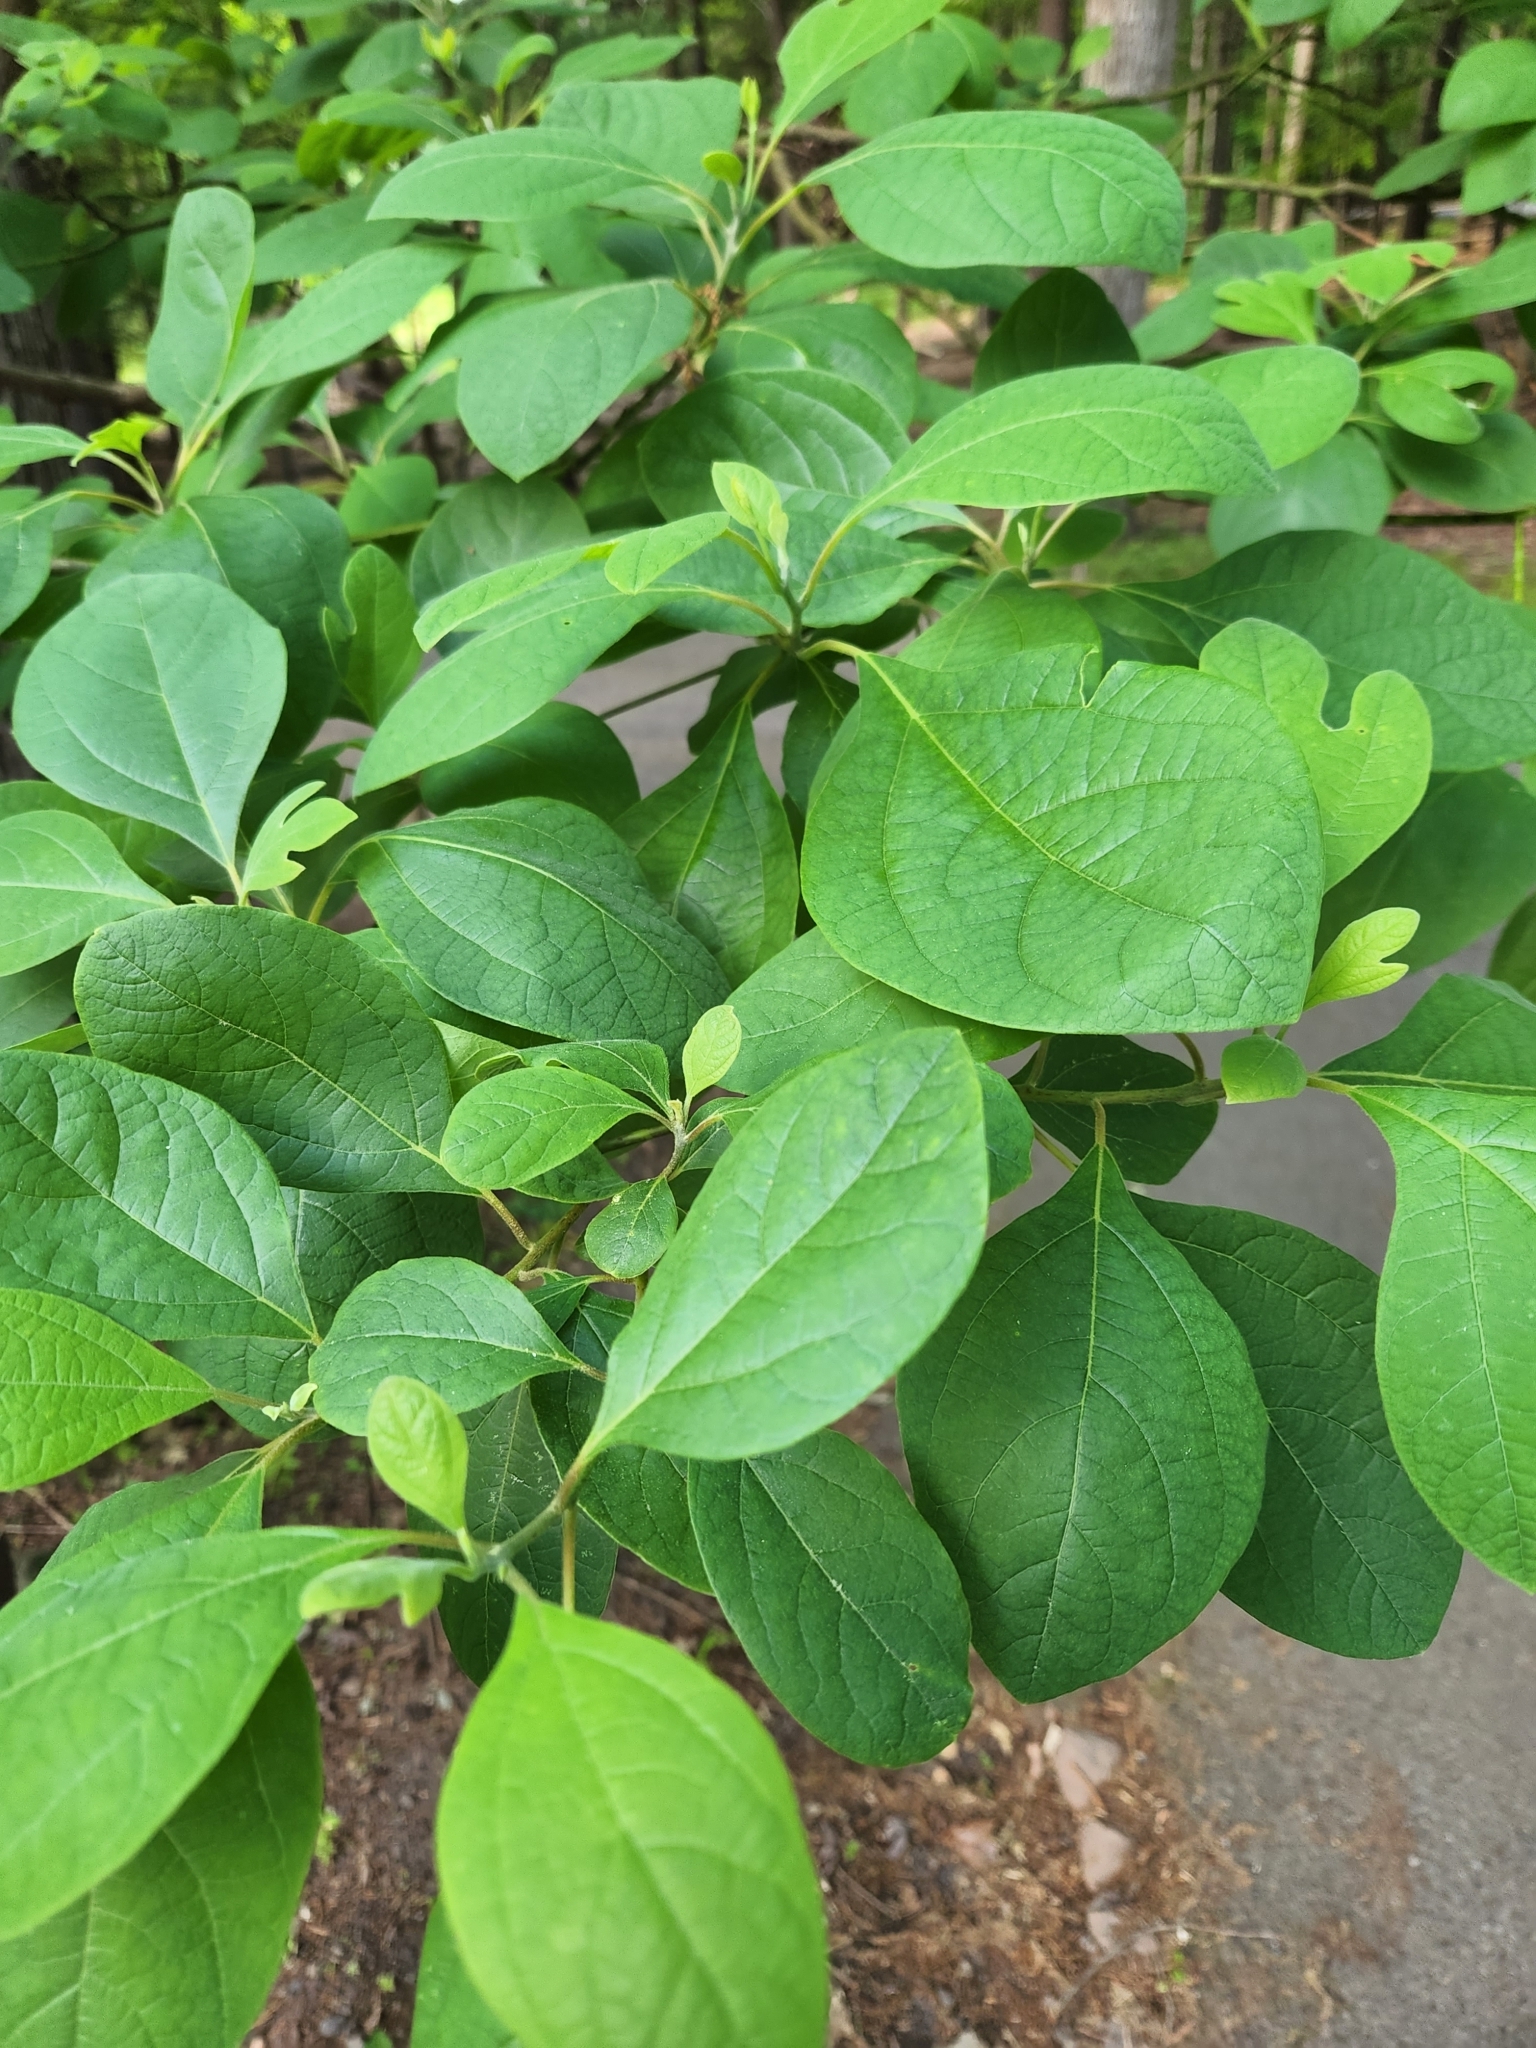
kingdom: Plantae
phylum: Tracheophyta
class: Magnoliopsida
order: Laurales
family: Lauraceae
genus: Sassafras
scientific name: Sassafras albidum
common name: Sassafras
